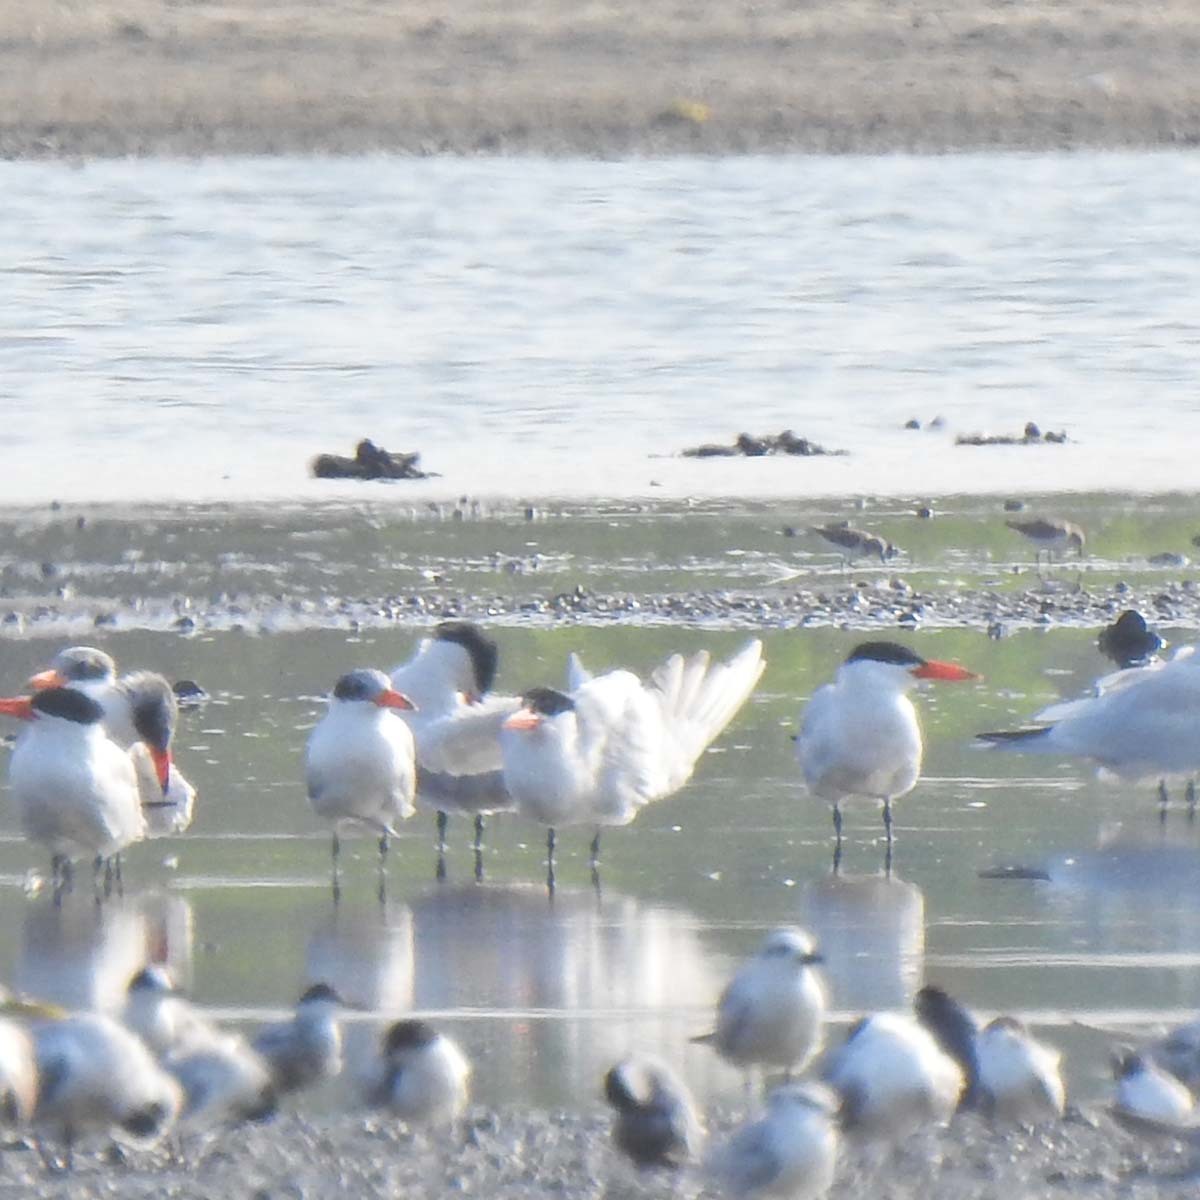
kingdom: Animalia
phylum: Chordata
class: Aves
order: Charadriiformes
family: Laridae
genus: Hydroprogne
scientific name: Hydroprogne caspia
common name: Caspian tern
